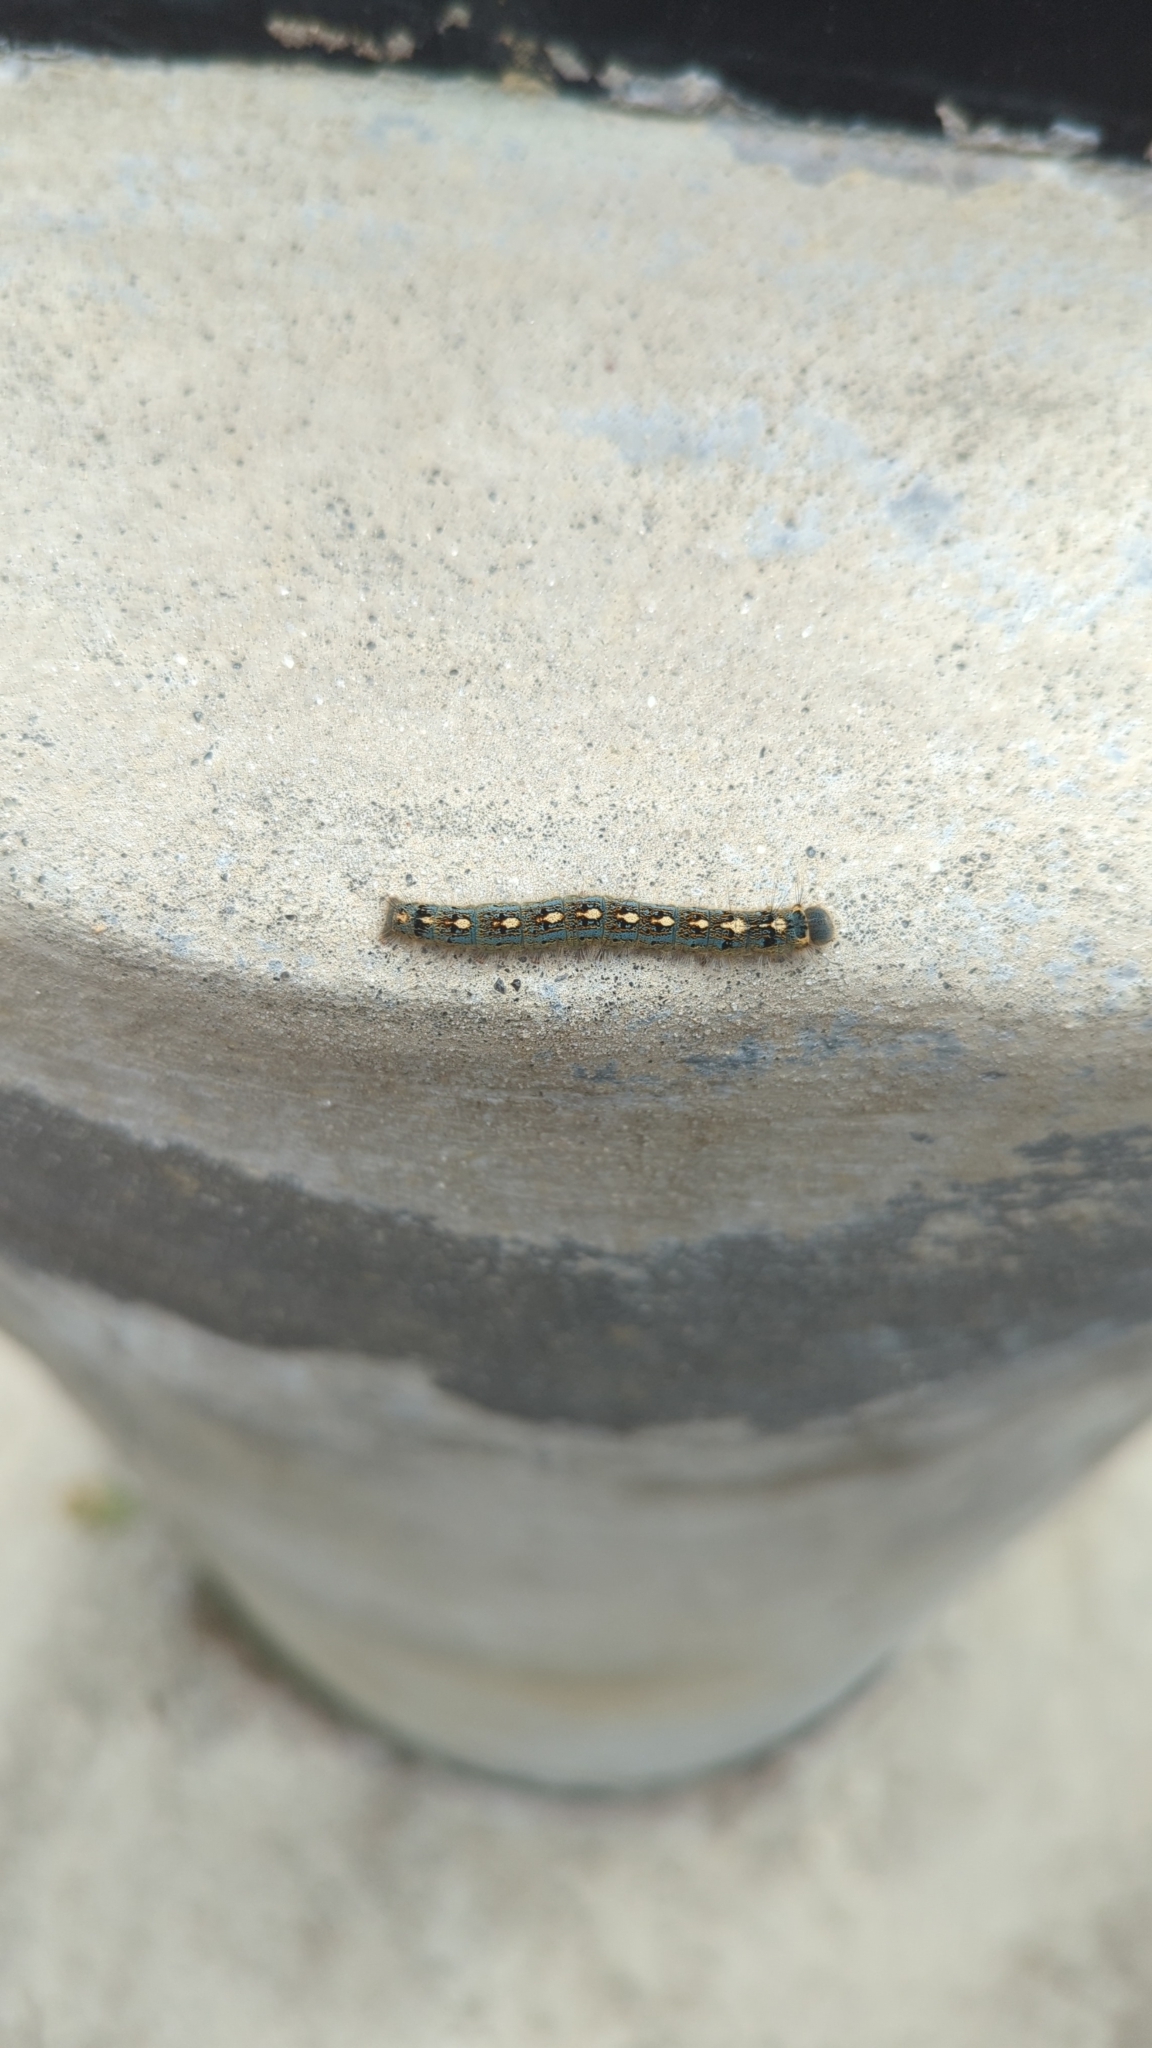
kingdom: Animalia
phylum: Arthropoda
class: Insecta
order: Lepidoptera
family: Lasiocampidae
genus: Malacosoma
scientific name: Malacosoma disstria
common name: Forest tent caterpillar
